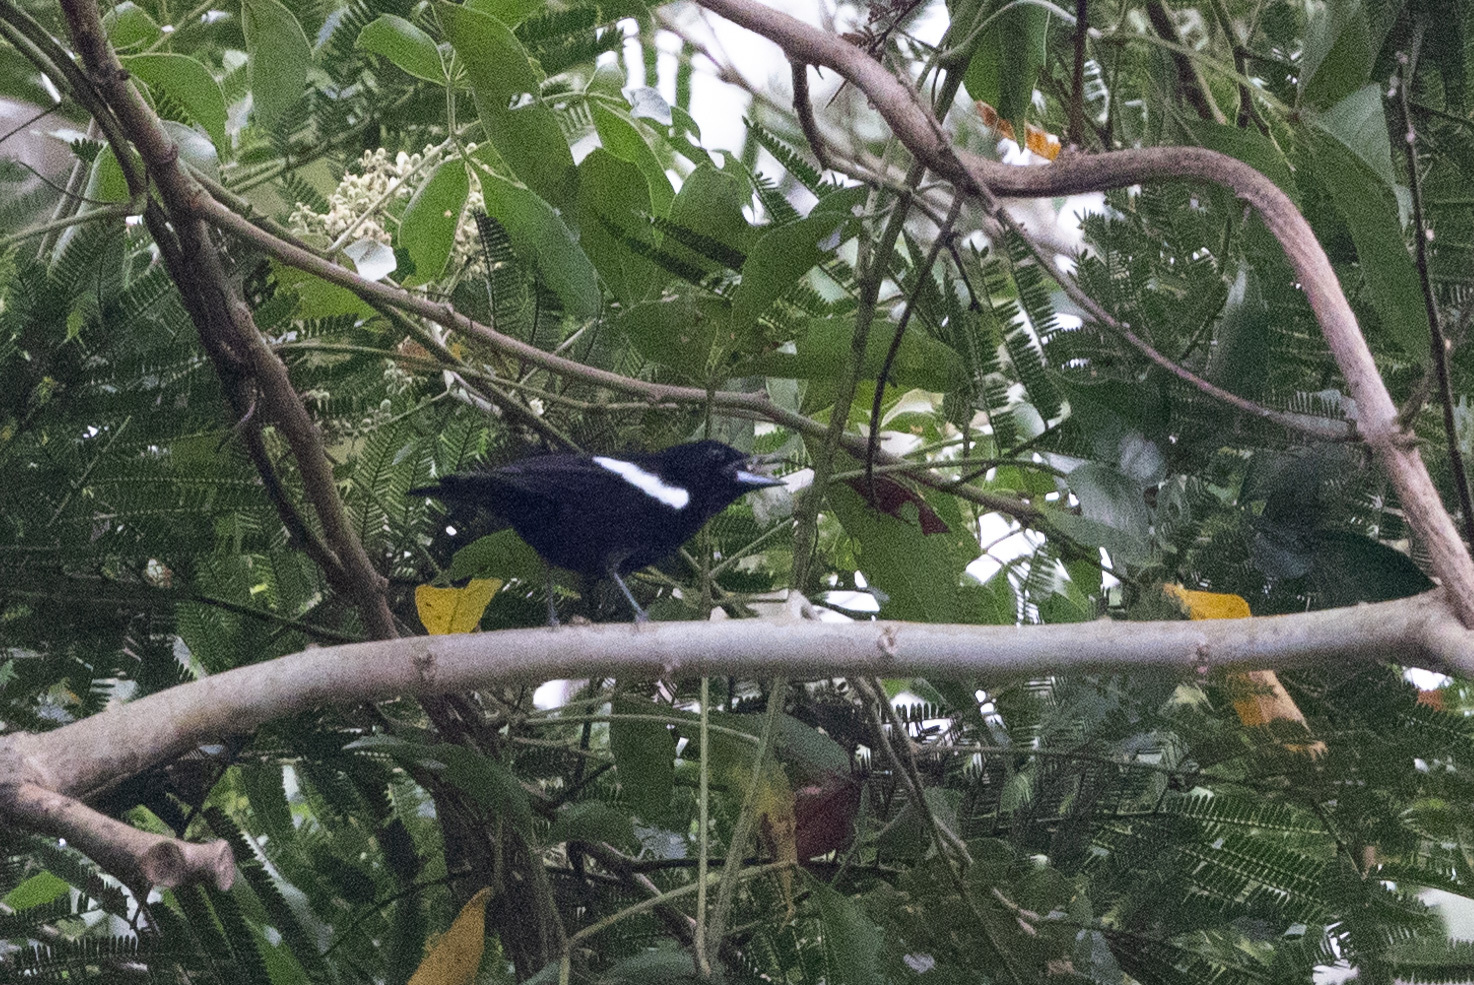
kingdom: Animalia
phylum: Chordata
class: Aves
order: Passeriformes
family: Thraupidae
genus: Loriotus
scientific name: Loriotus luctuosus
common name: White-shouldered tanager
